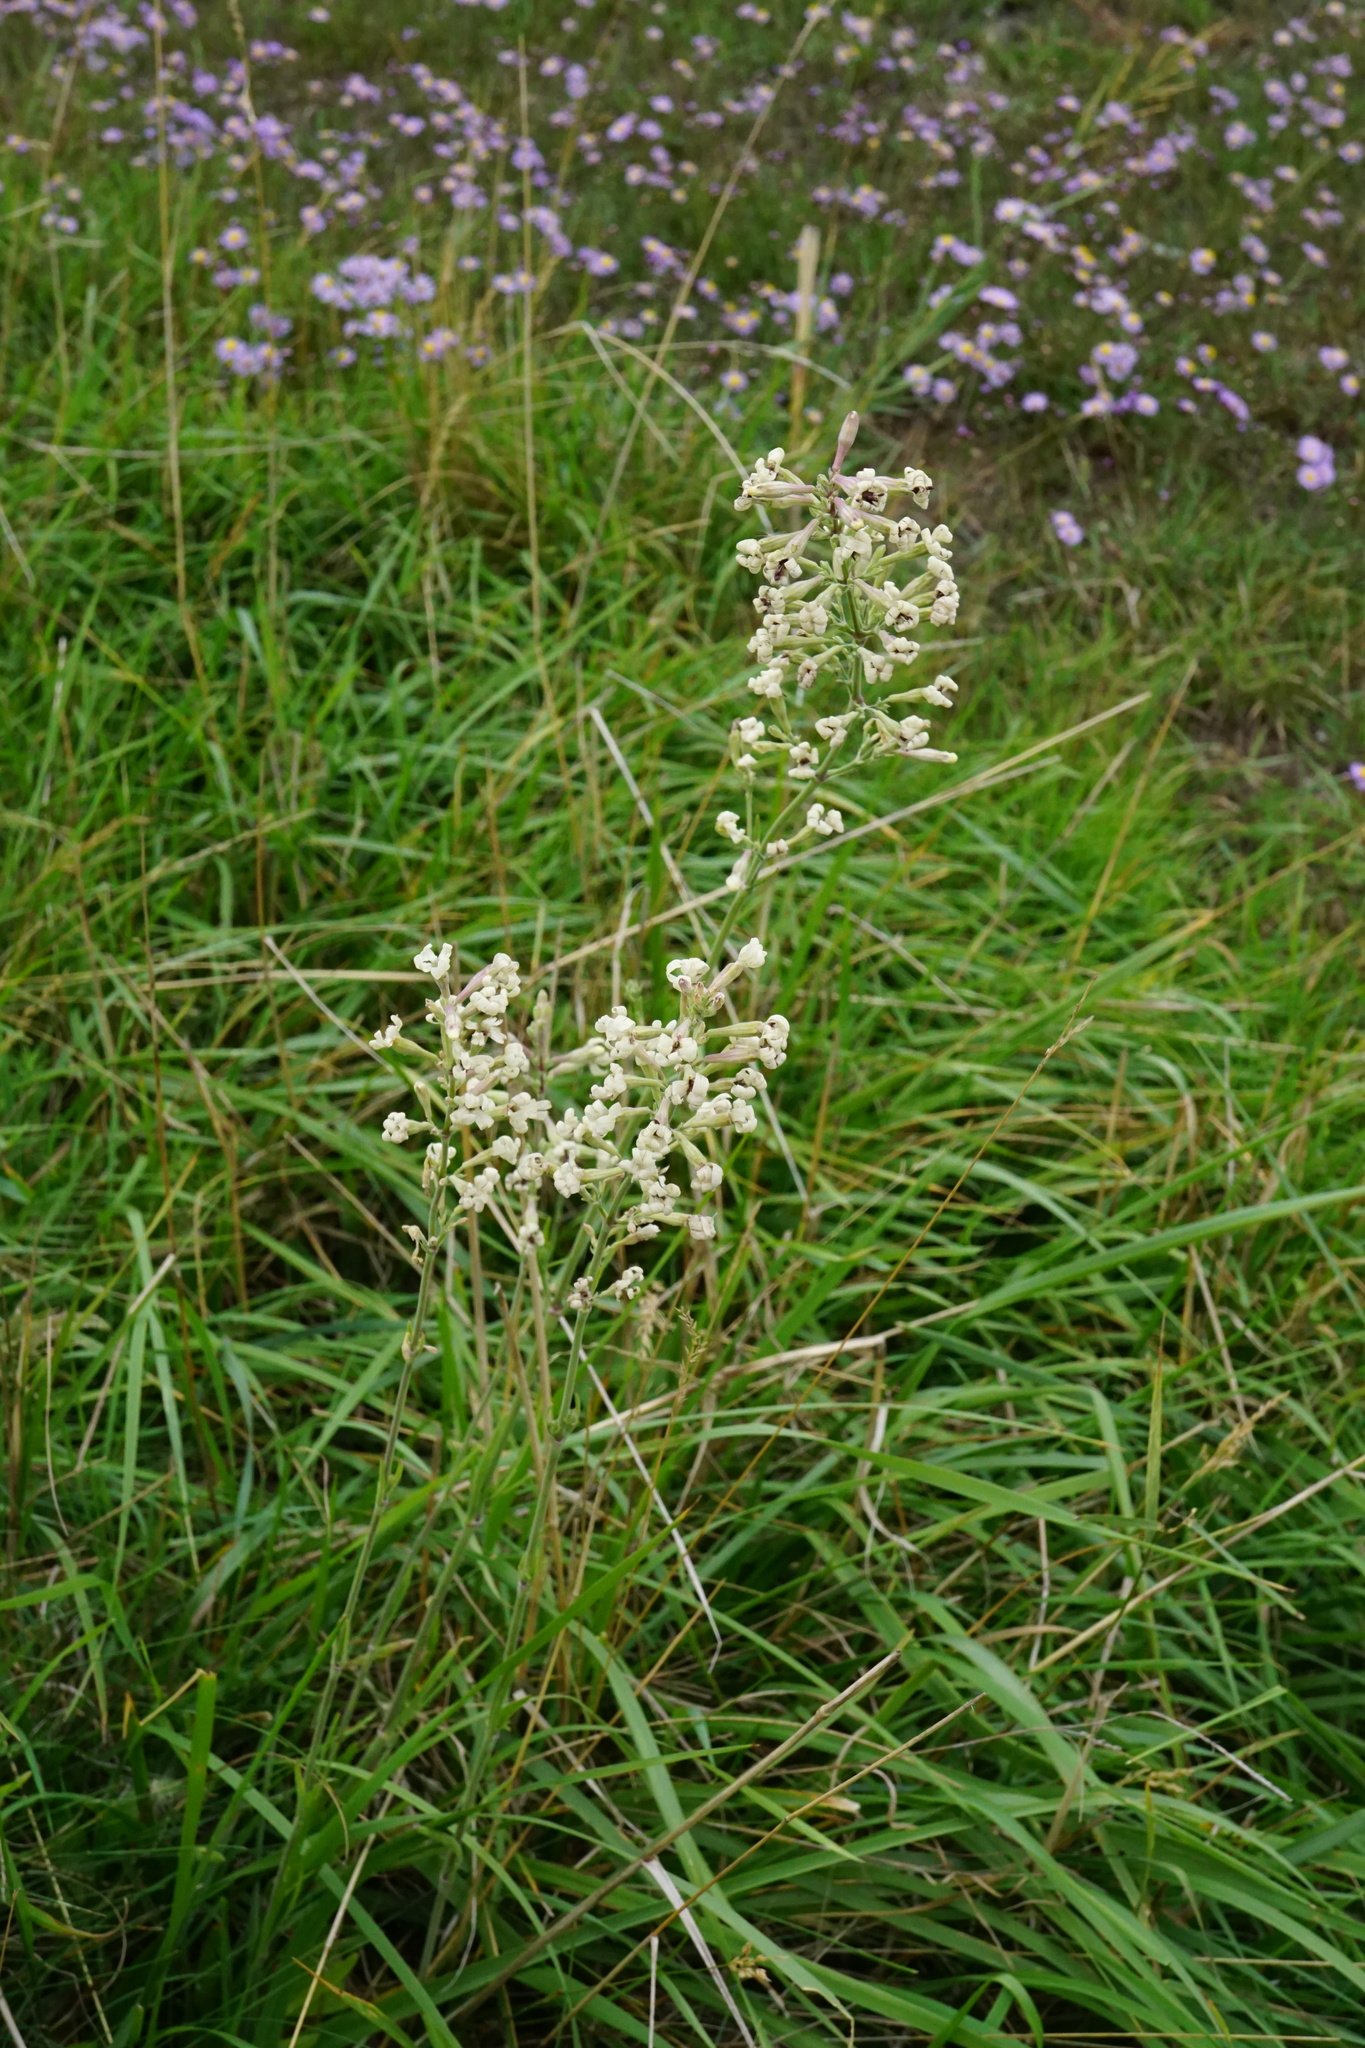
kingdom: Plantae
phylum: Tracheophyta
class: Magnoliopsida
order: Caryophyllales
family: Caryophyllaceae
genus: Silene
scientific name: Silene multiflora
